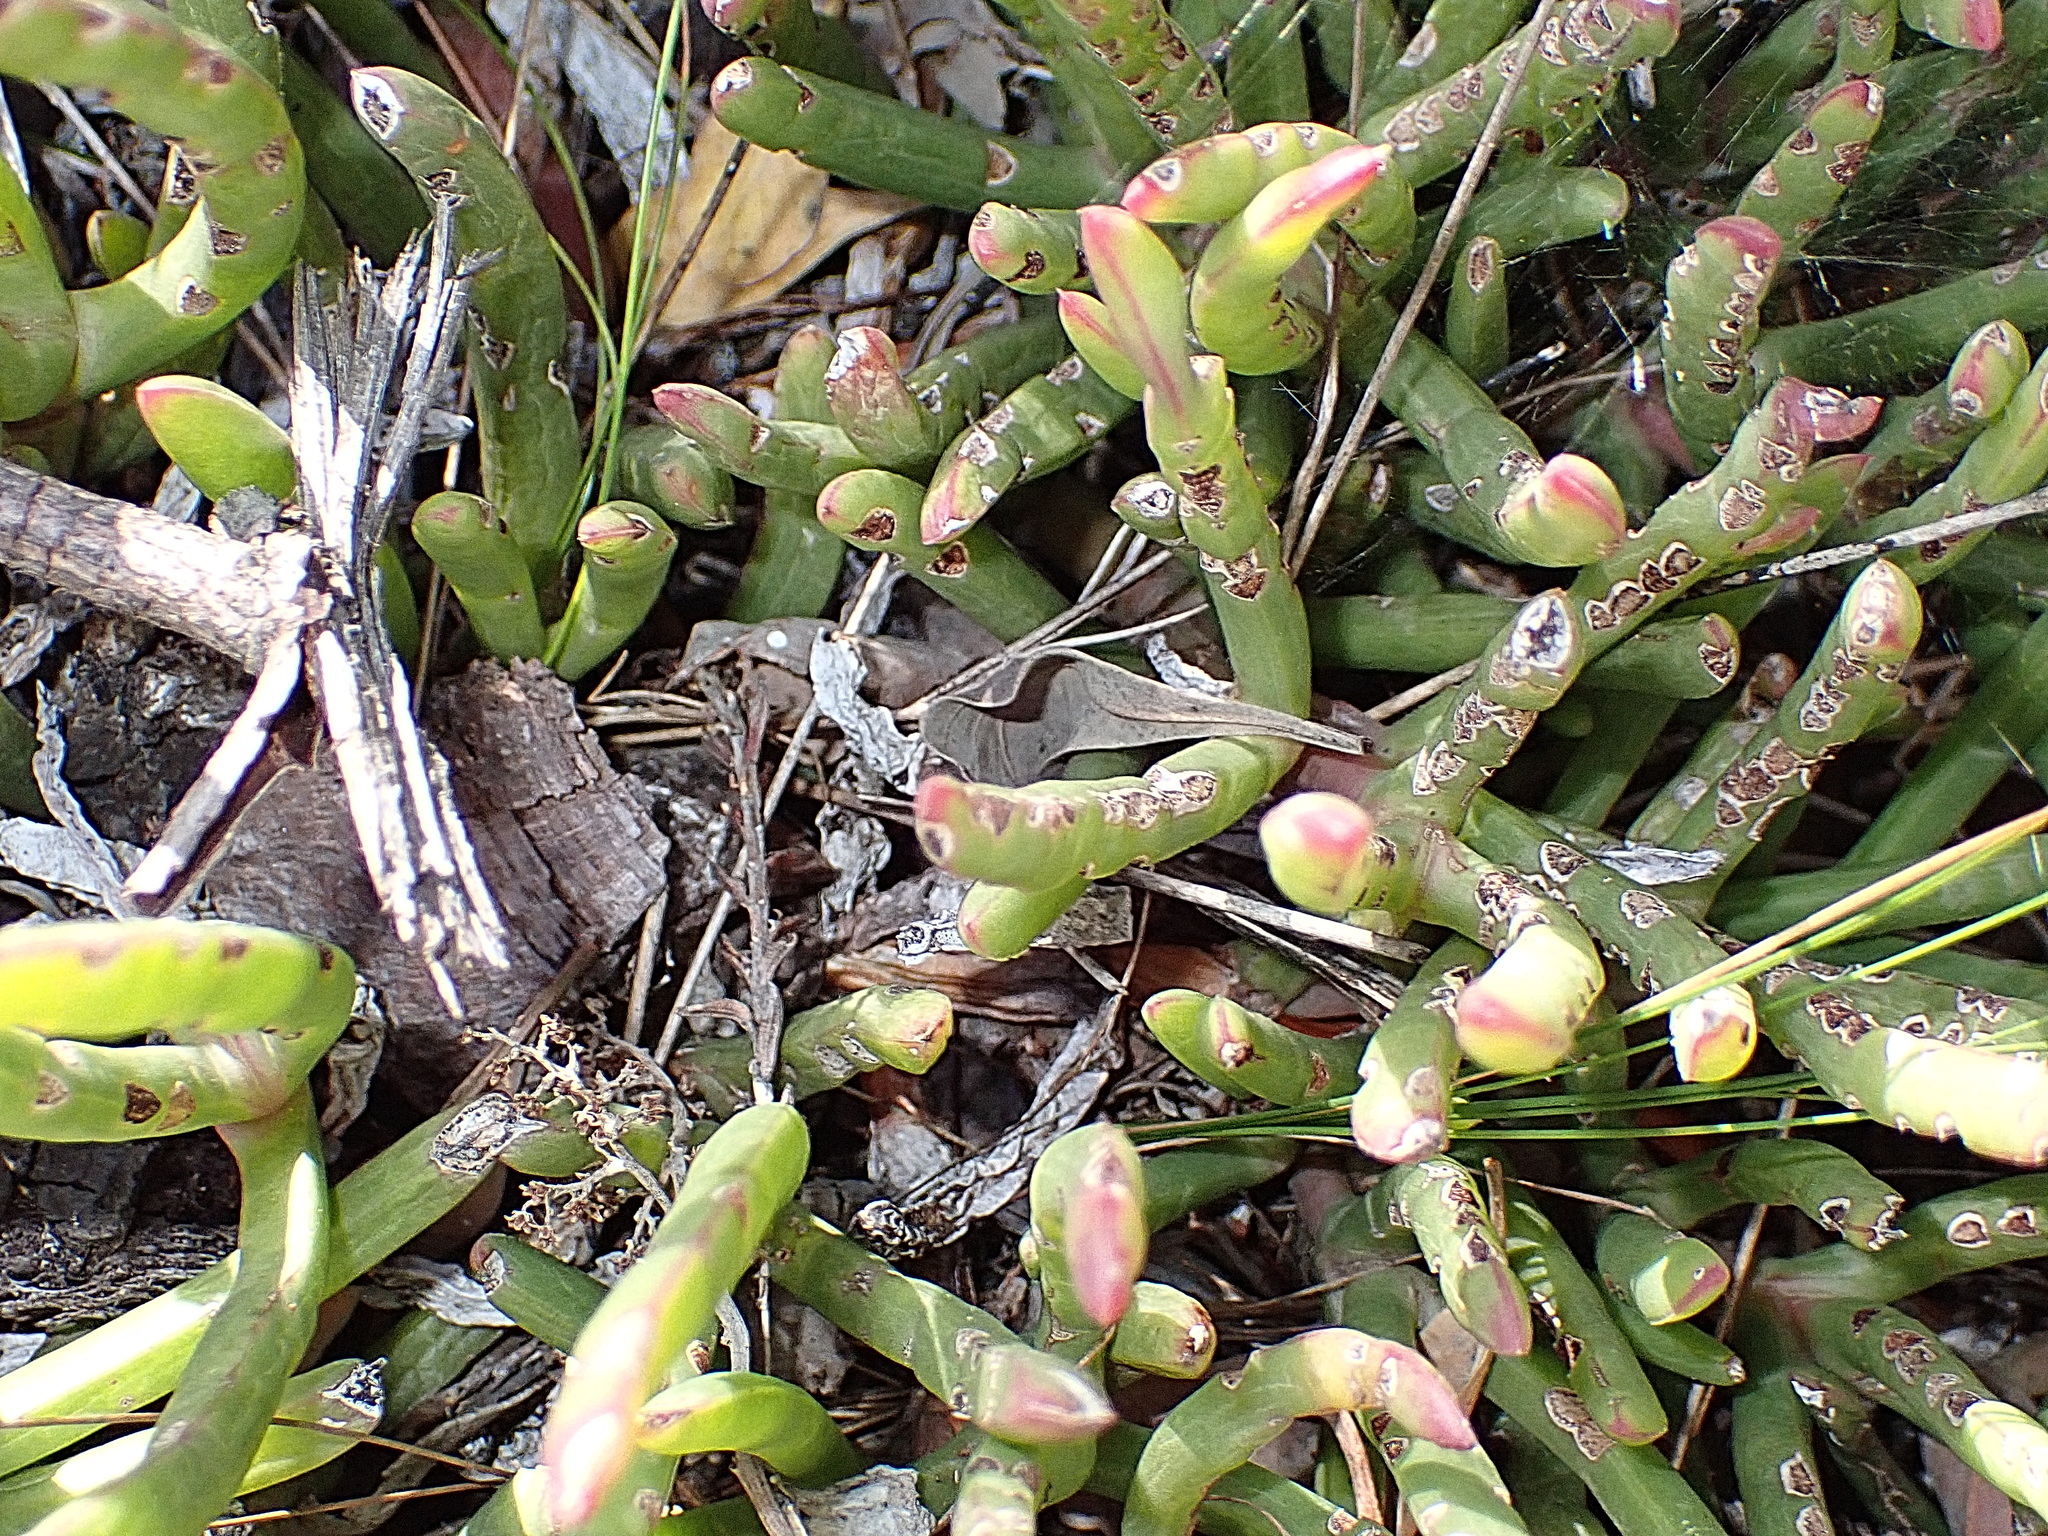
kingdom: Plantae
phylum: Tracheophyta
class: Magnoliopsida
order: Caryophyllales
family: Aizoaceae
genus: Carpobrotus
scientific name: Carpobrotus muirii
